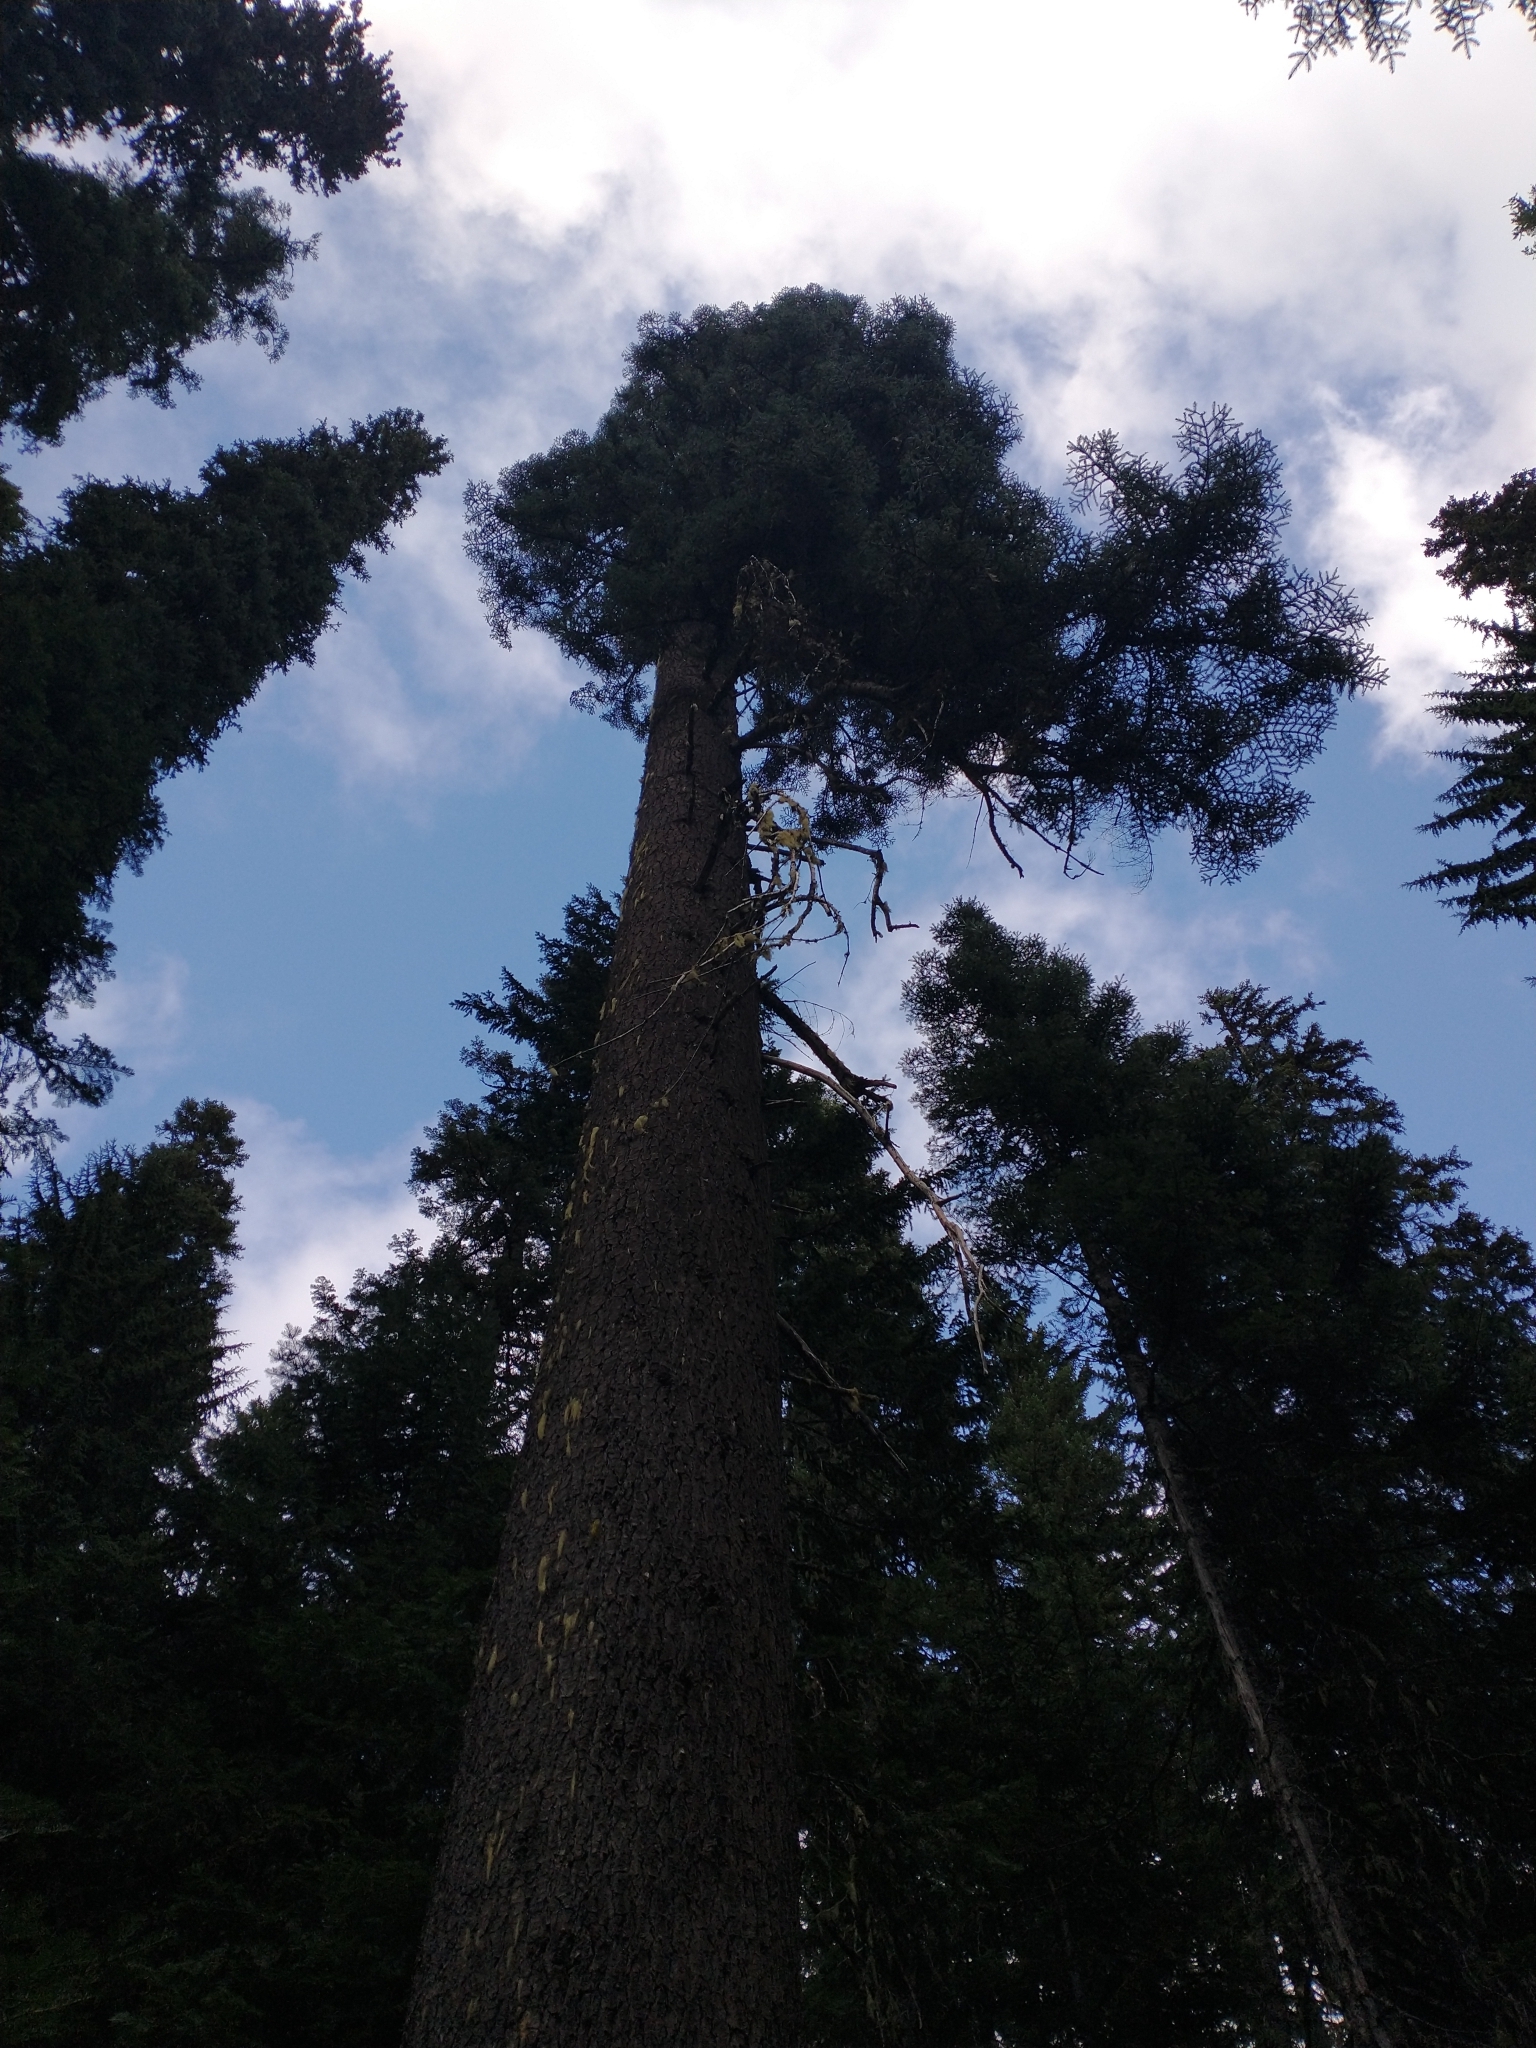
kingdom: Plantae
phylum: Tracheophyta
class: Pinopsida
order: Pinales
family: Pinaceae
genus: Abies
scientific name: Abies procera
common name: Noble fir
